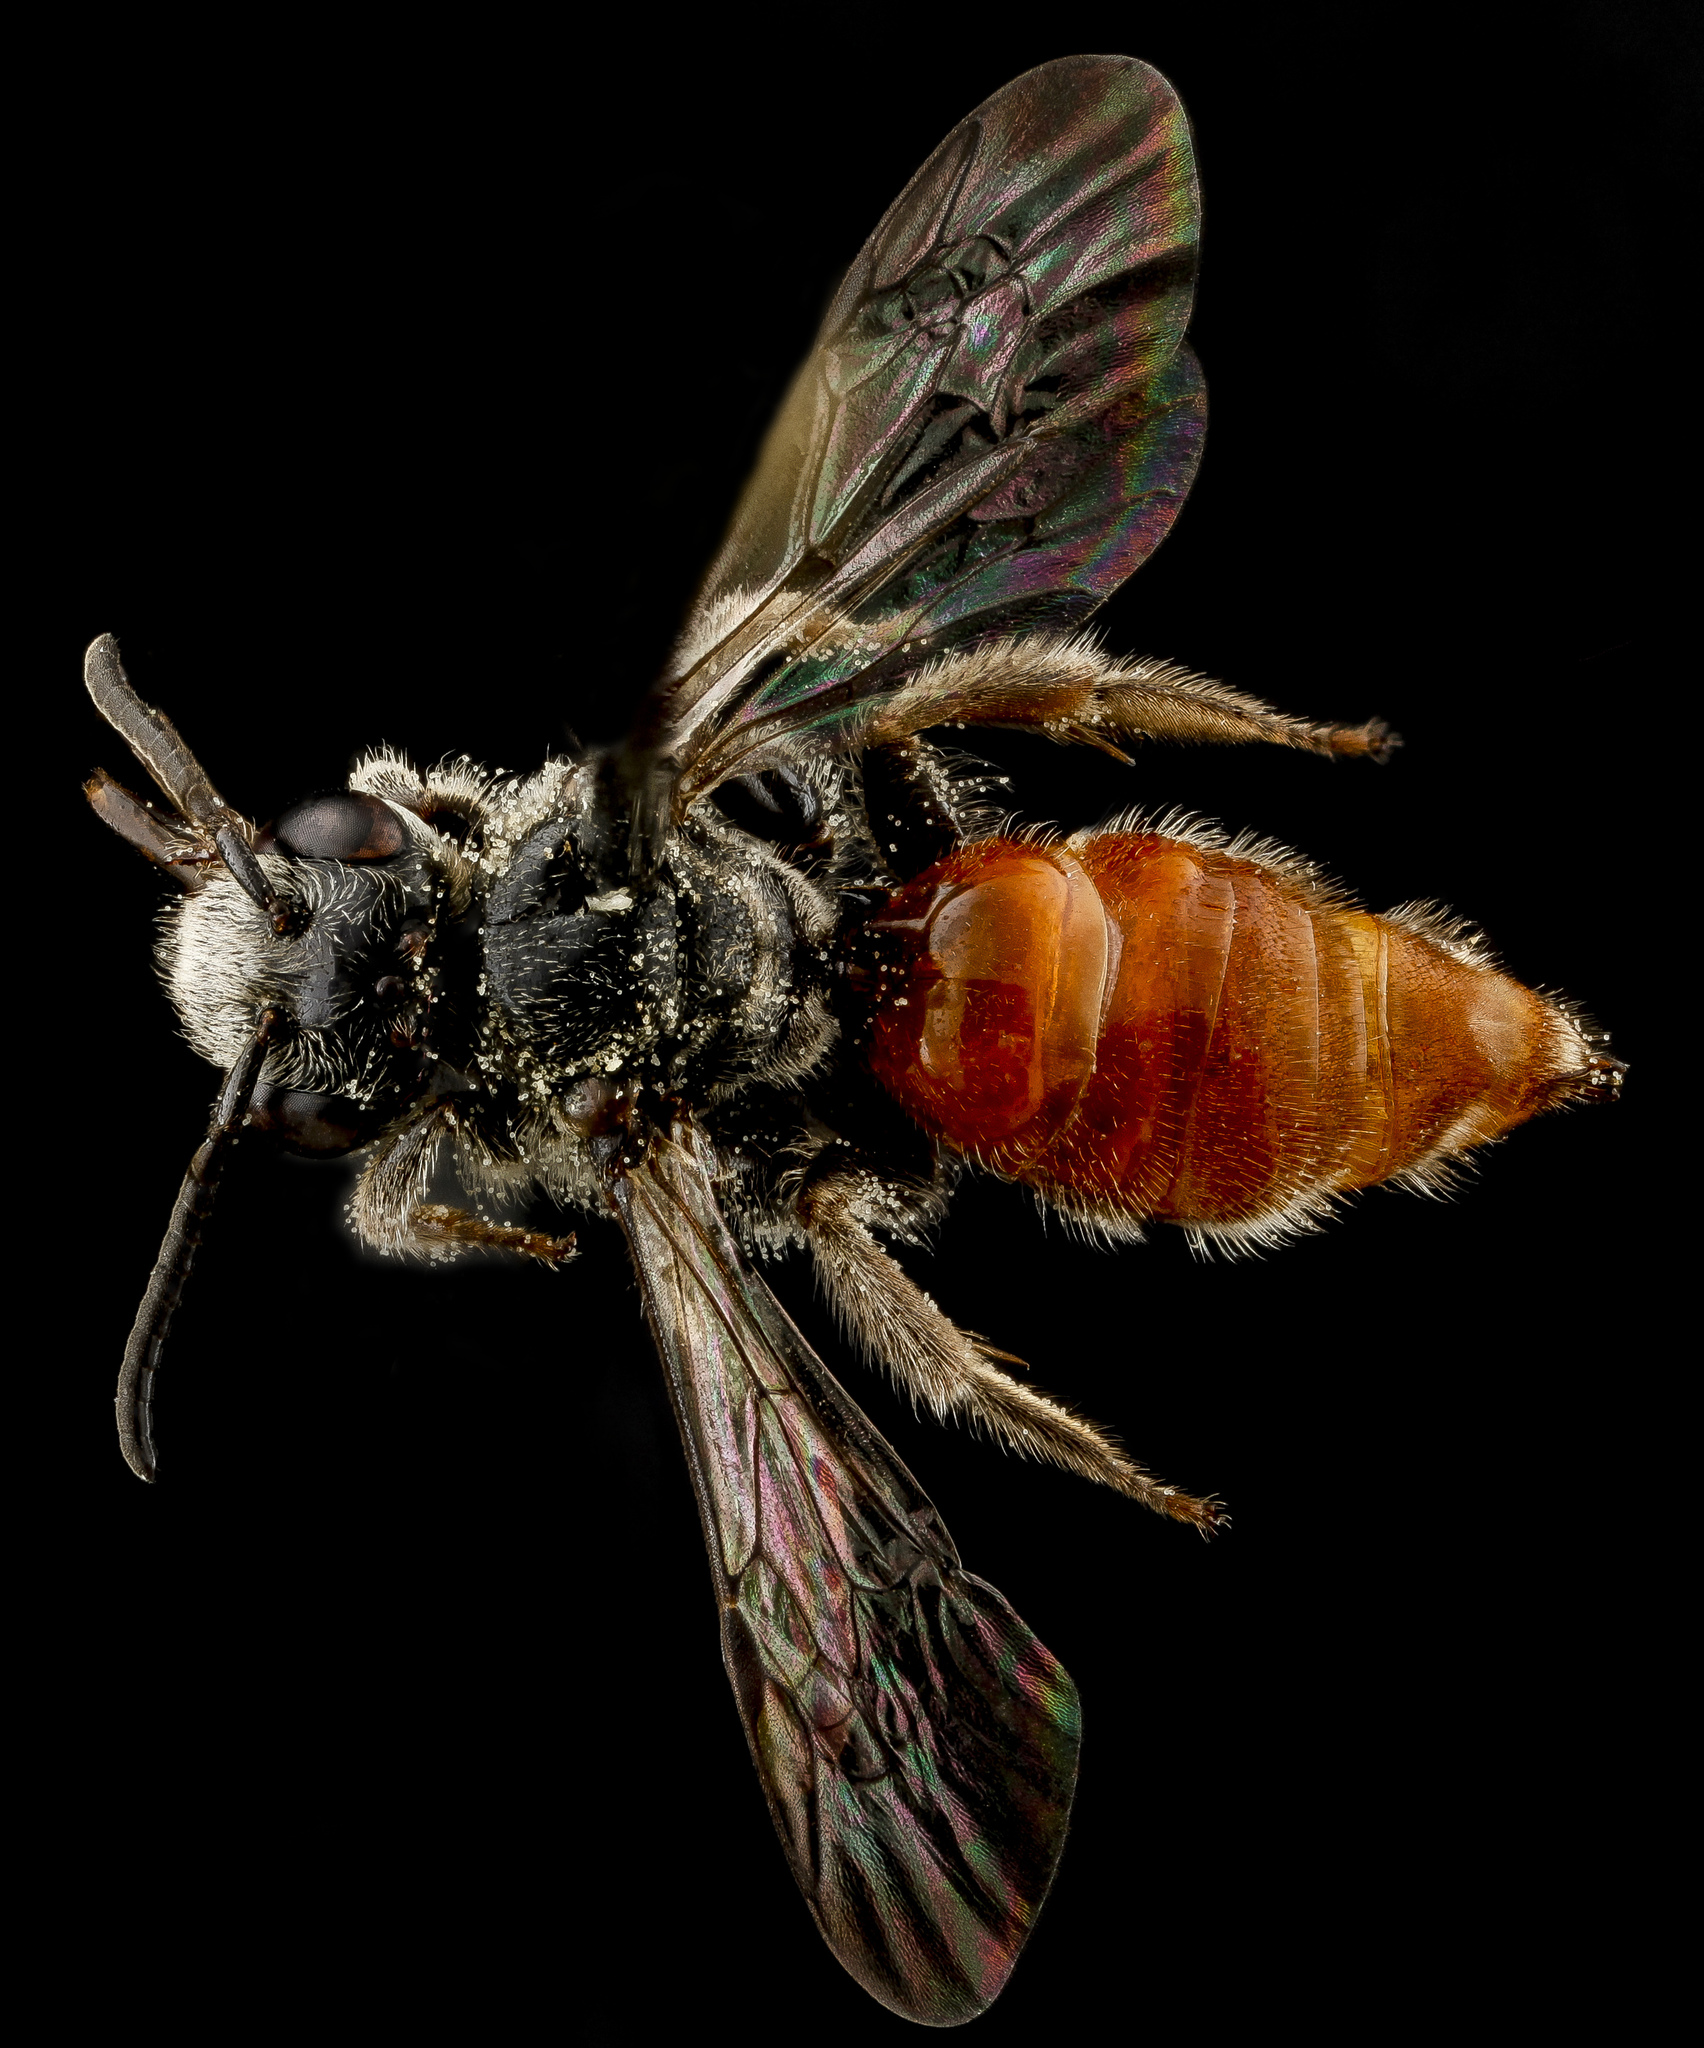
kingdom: Animalia
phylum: Arthropoda
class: Insecta
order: Hymenoptera
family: Apidae
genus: Brachynomada
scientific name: Brachynomada grindeliae
